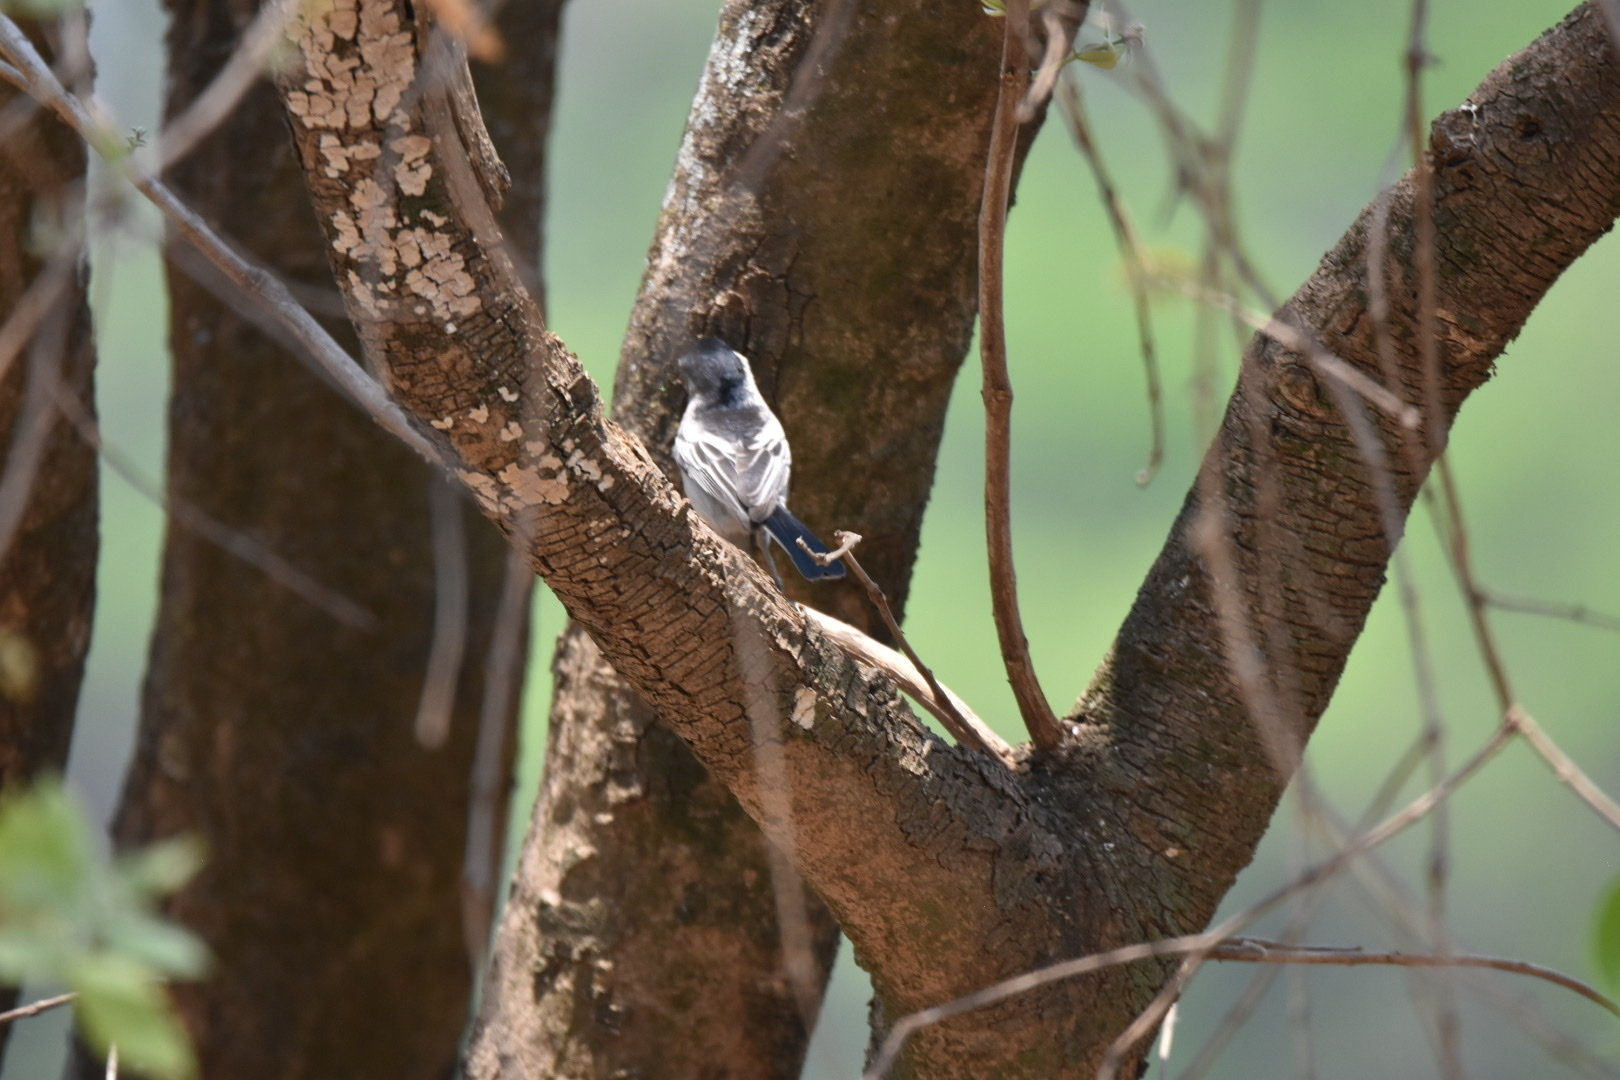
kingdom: Animalia
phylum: Chordata
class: Aves
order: Passeriformes
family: Malaconotidae
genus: Dryoscopus
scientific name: Dryoscopus cubla
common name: Black-backed puffback
